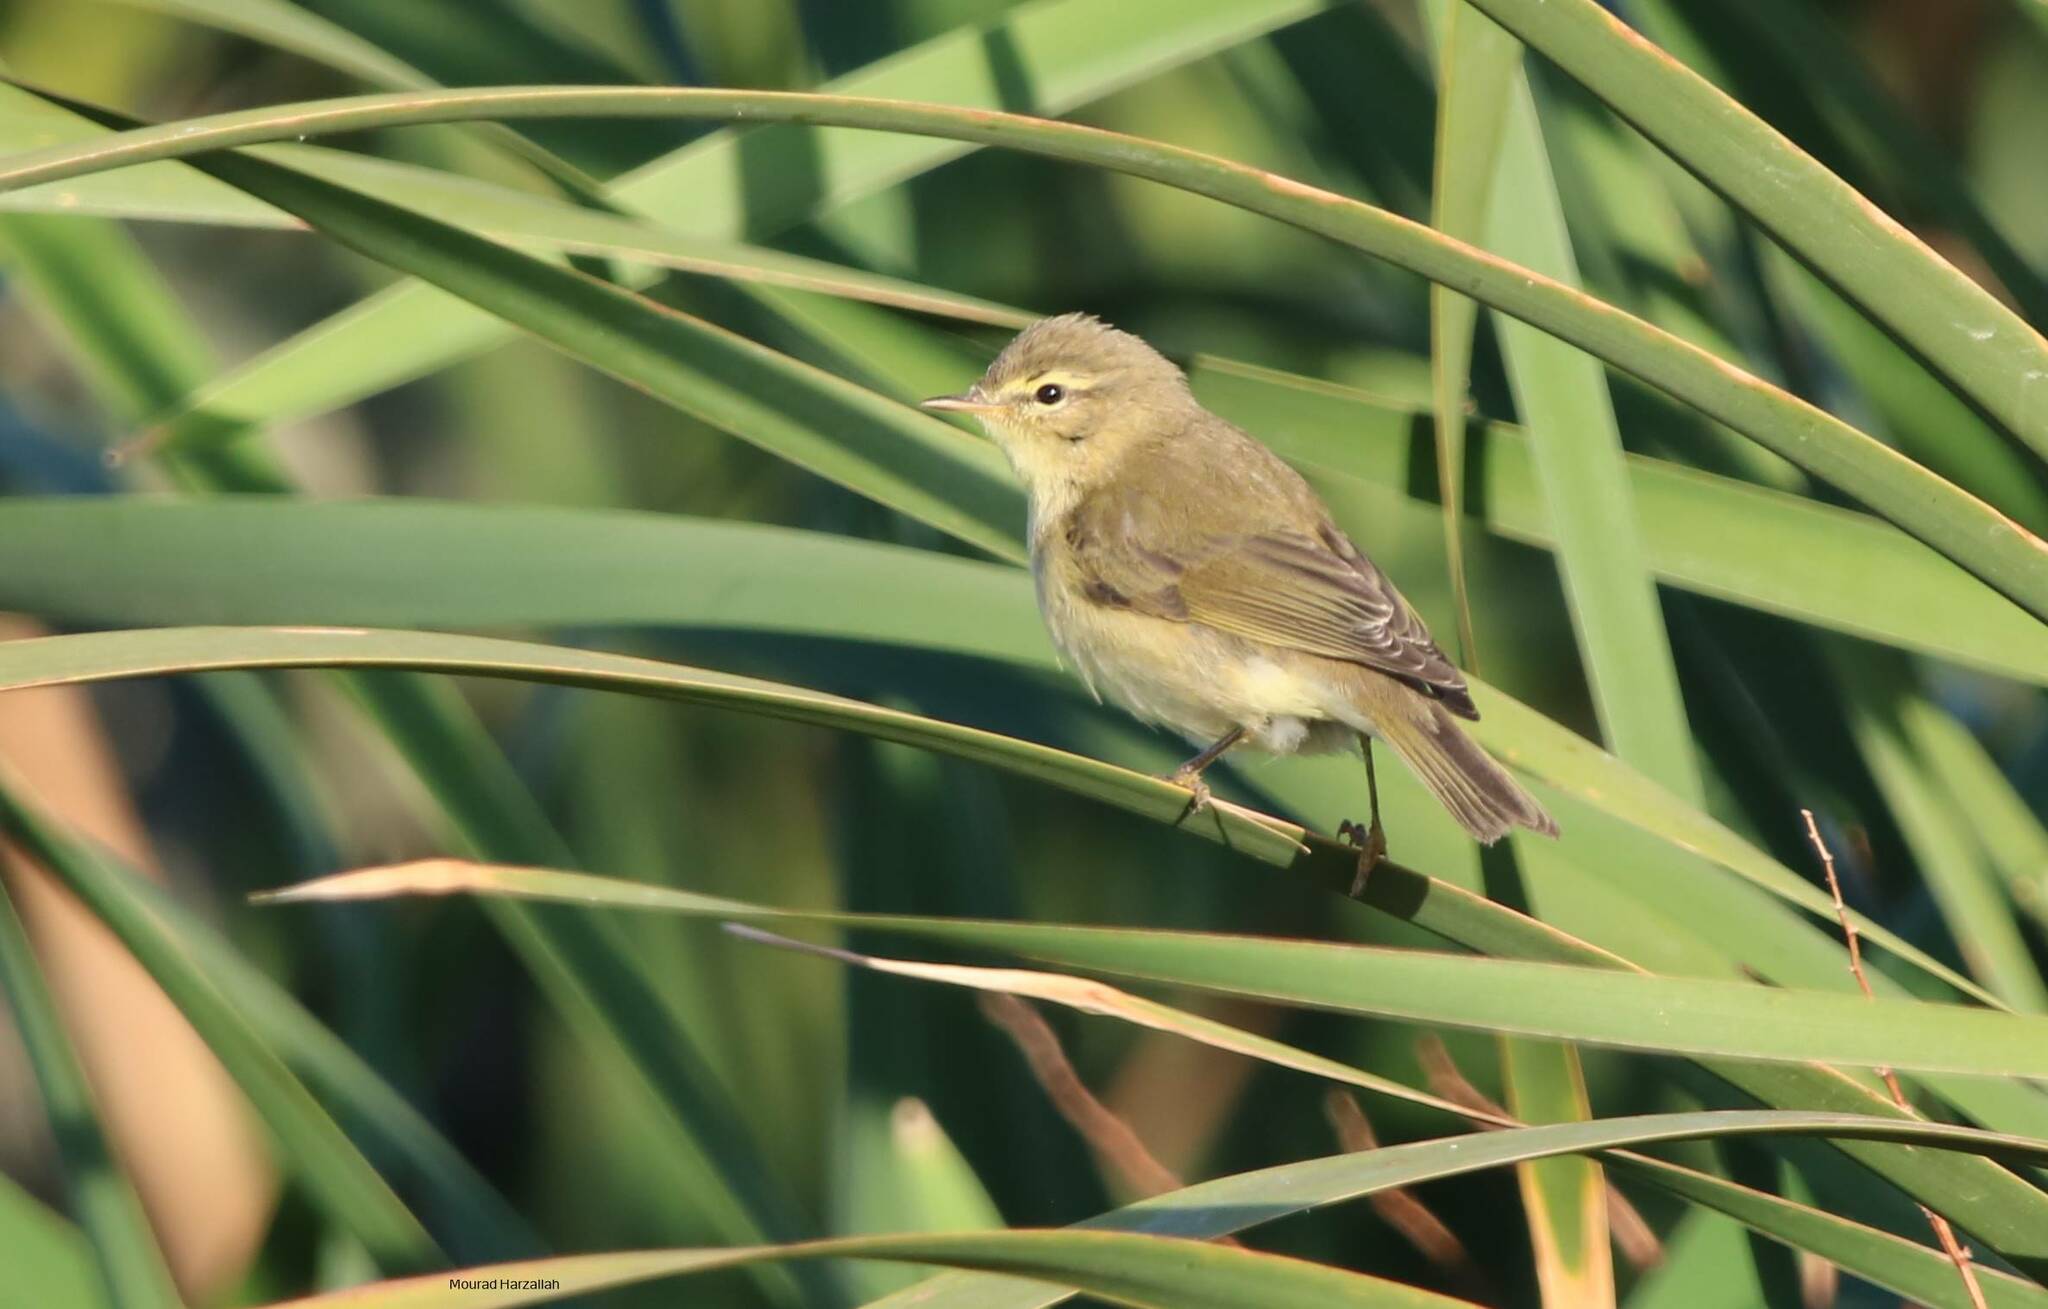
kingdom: Animalia
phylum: Chordata
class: Aves
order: Passeriformes
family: Phylloscopidae
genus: Phylloscopus
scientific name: Phylloscopus trochilus
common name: Willow warbler
